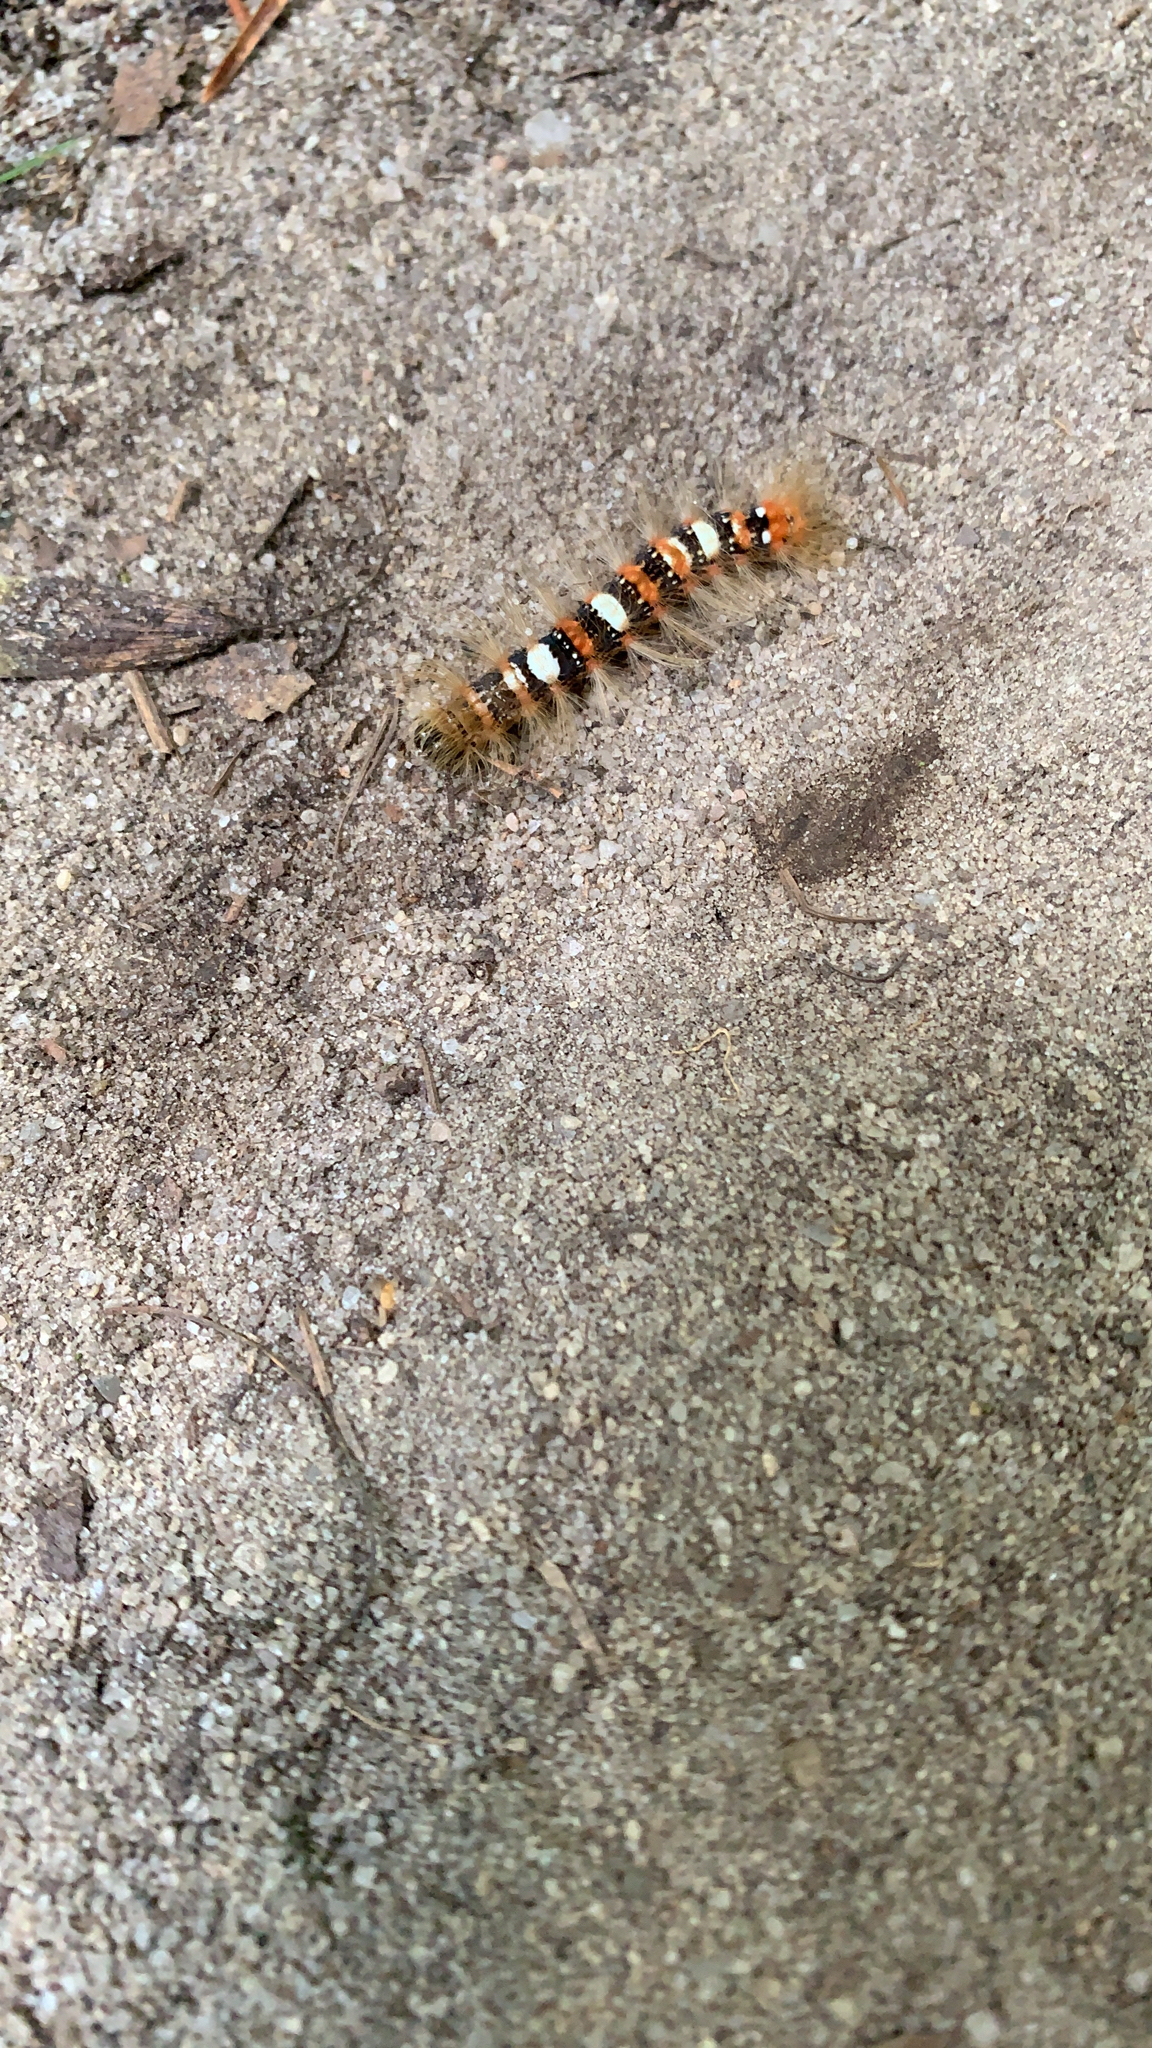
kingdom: Animalia
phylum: Arthropoda
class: Insecta
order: Lepidoptera
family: Noctuidae
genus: Moma
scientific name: Moma alpium
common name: Scarce merveille du jour
